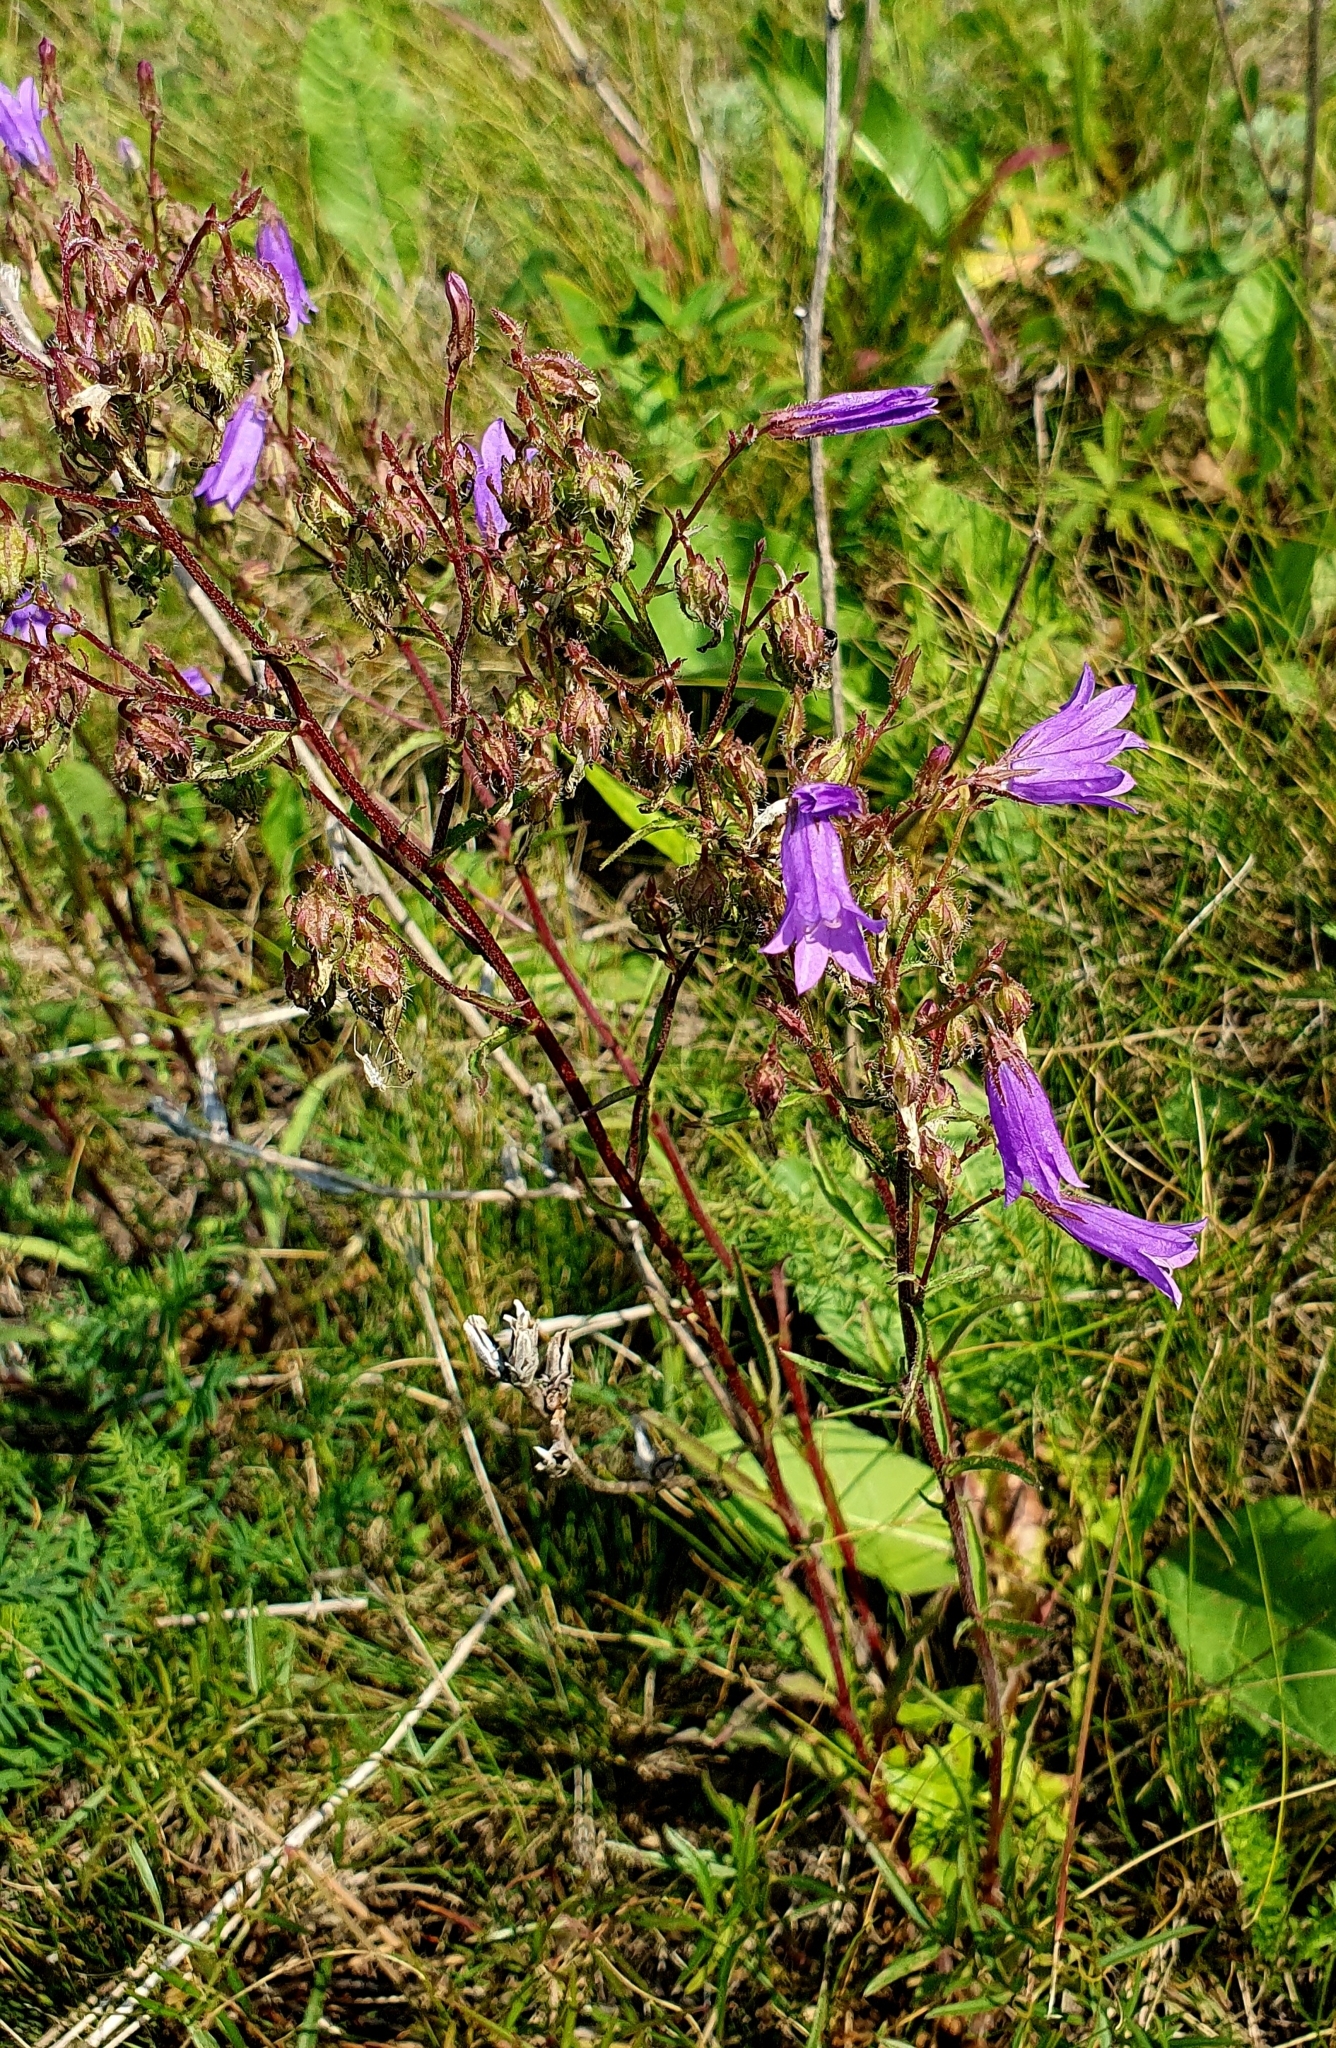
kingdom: Plantae
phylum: Tracheophyta
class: Magnoliopsida
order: Asterales
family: Campanulaceae
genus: Campanula
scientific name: Campanula sibirica
